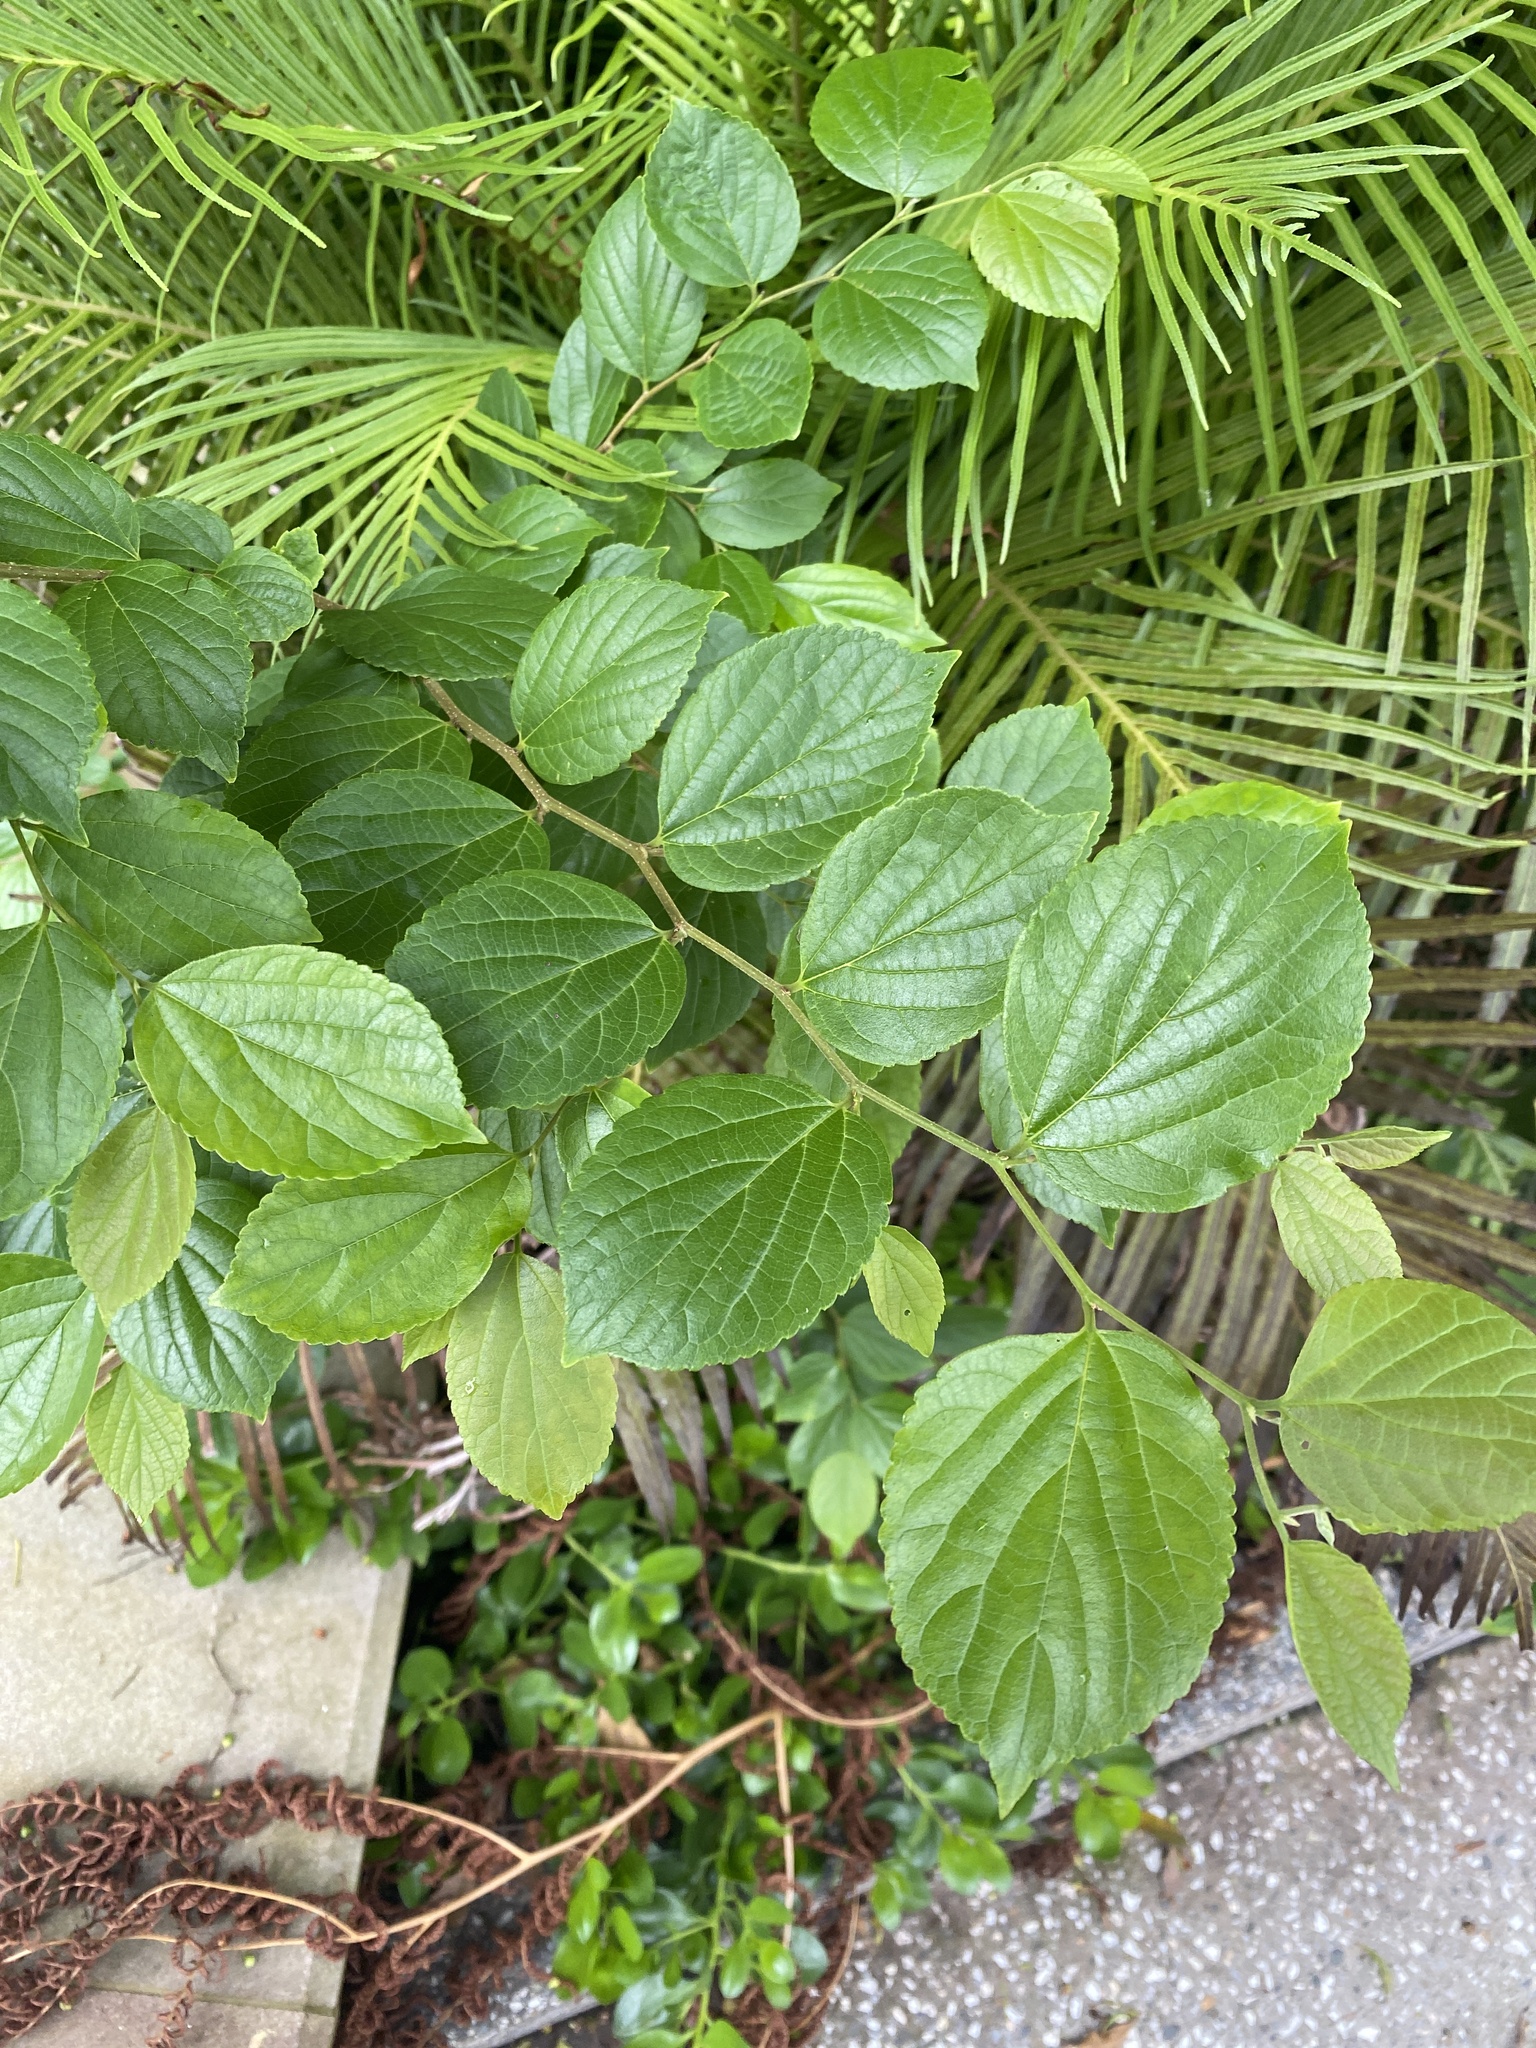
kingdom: Plantae
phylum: Tracheophyta
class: Magnoliopsida
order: Rosales
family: Cannabaceae
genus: Celtis
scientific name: Celtis sinensis
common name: Chinese hackberry
